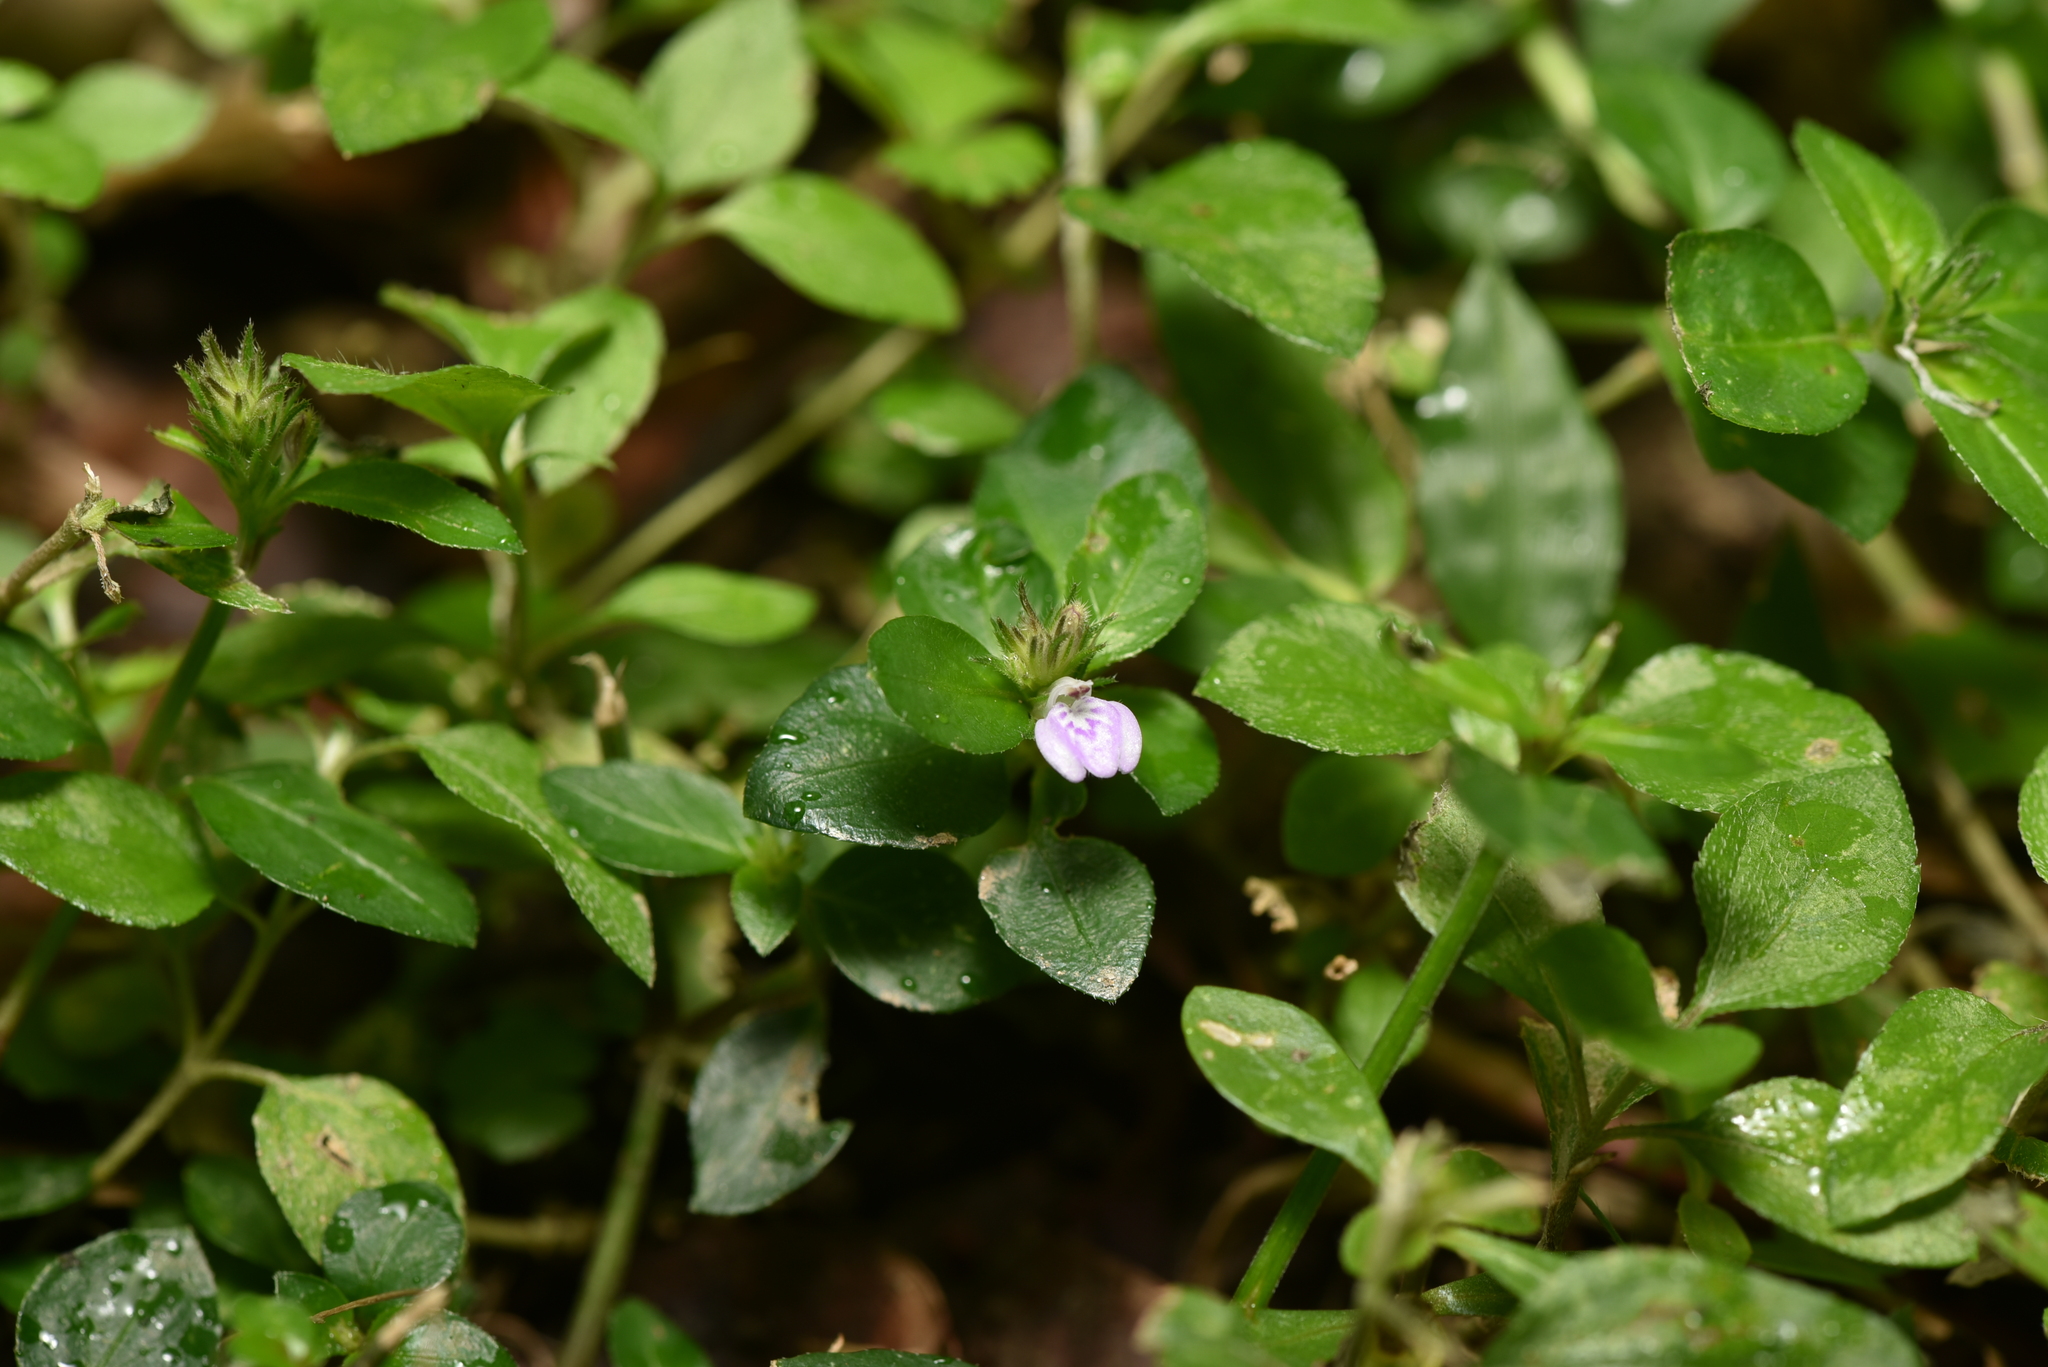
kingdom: Plantae
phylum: Tracheophyta
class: Magnoliopsida
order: Lamiales
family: Acanthaceae
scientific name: Acanthaceae
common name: Acanthaceae
